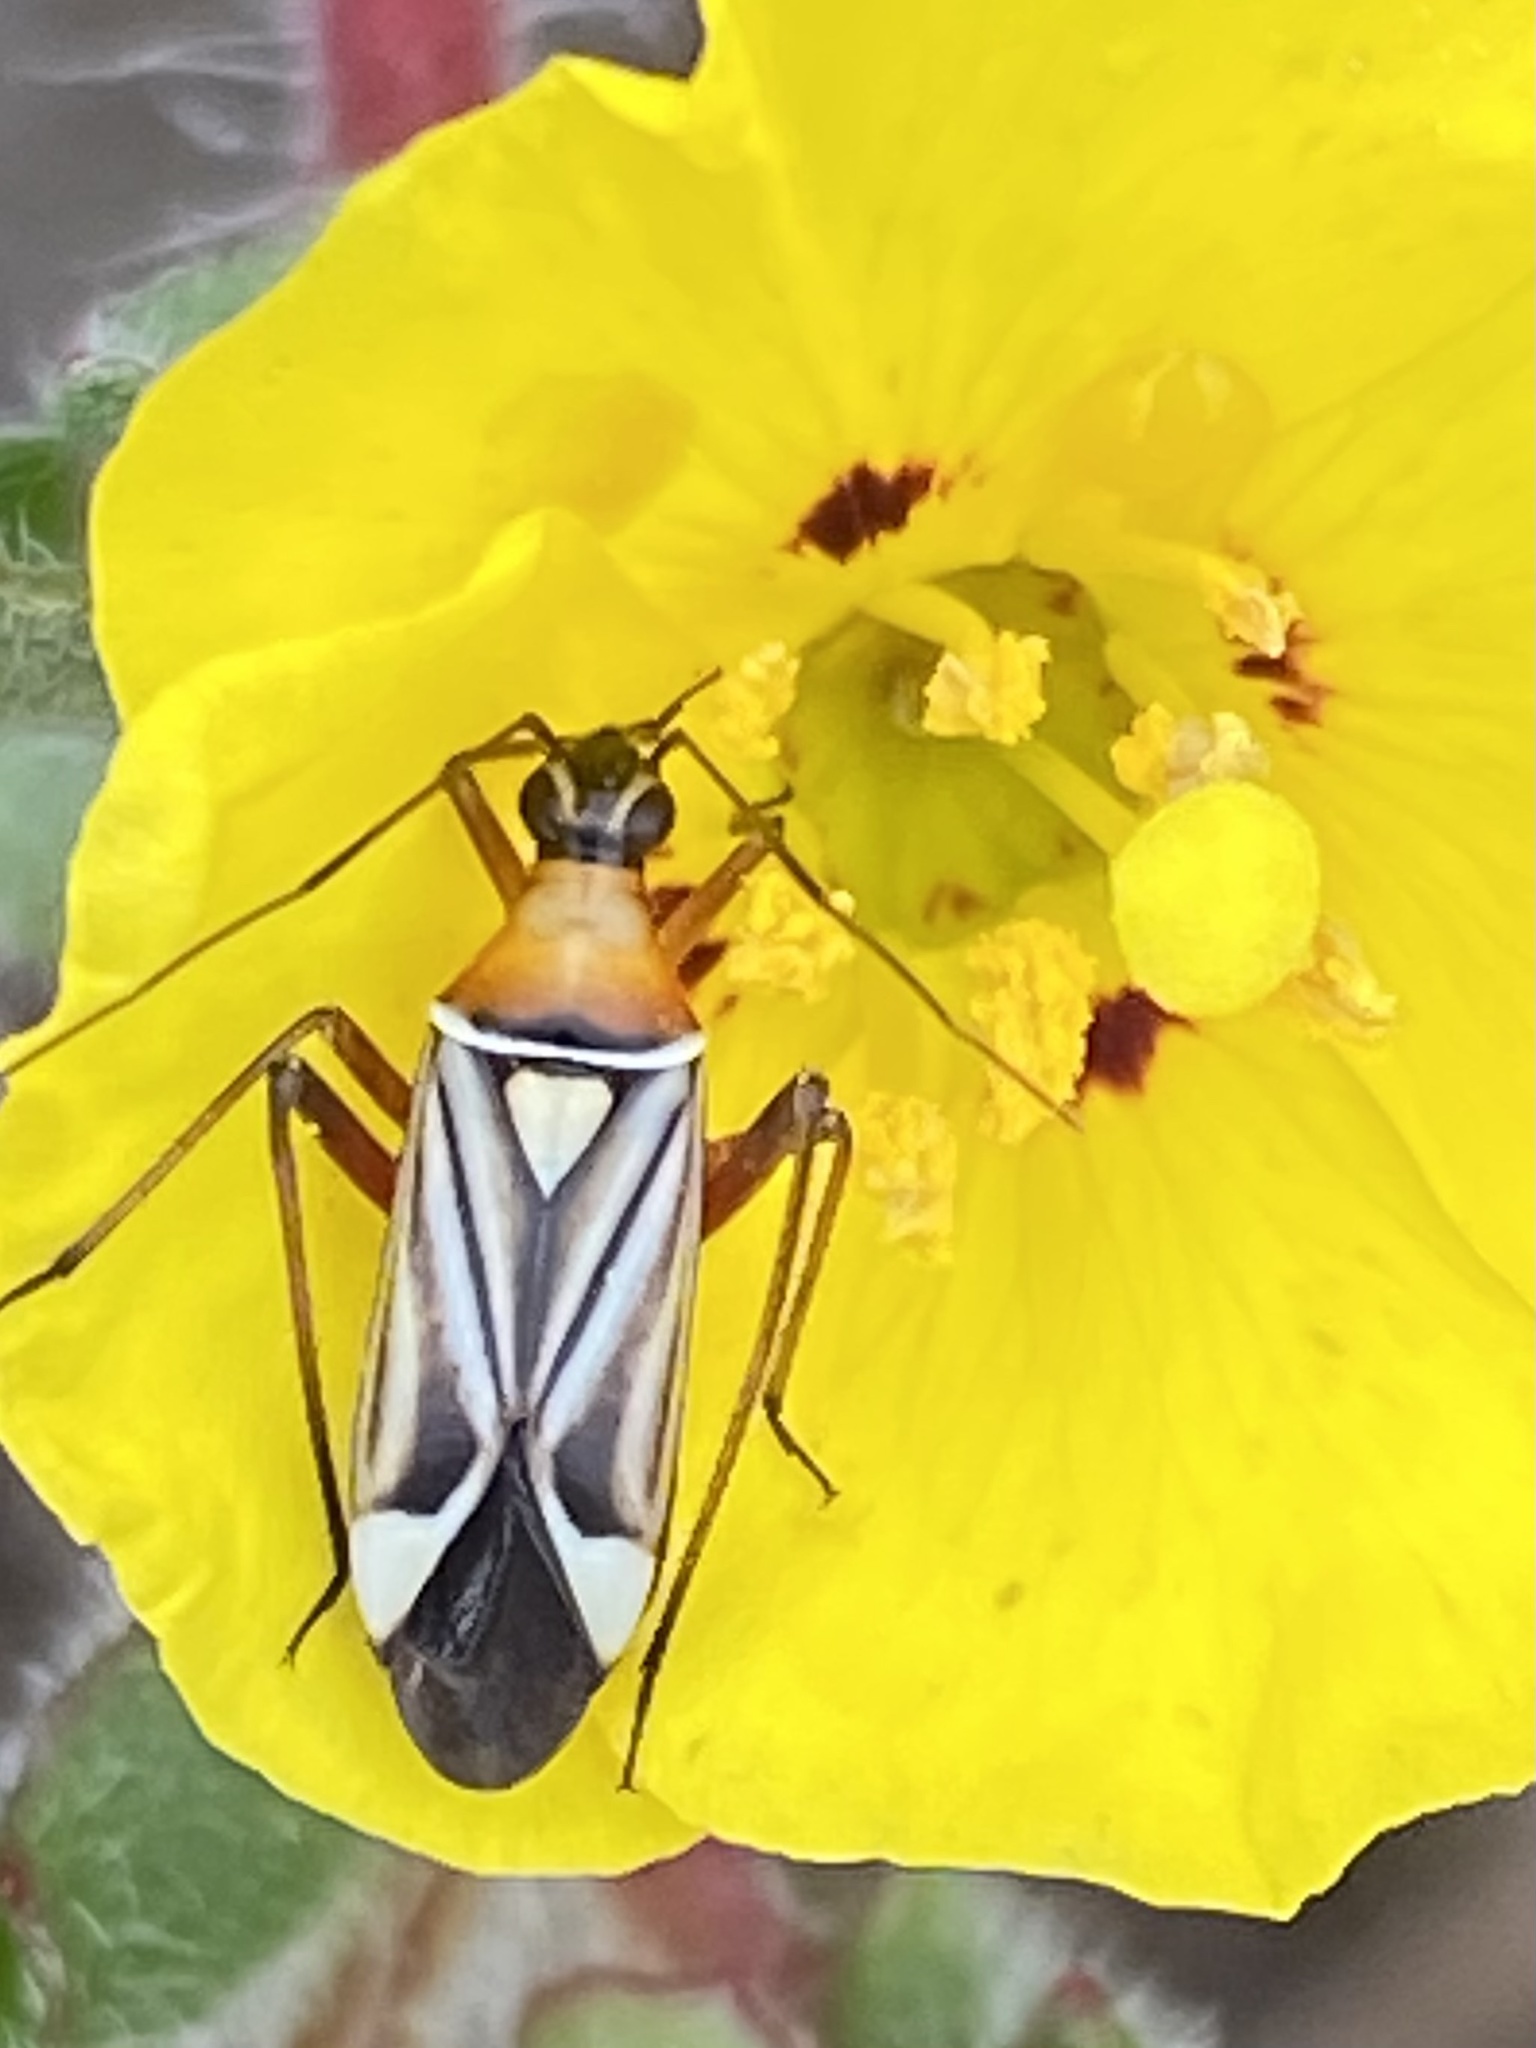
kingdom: Animalia
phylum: Arthropoda
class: Insecta
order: Hemiptera
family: Miridae
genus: Closterocoris
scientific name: Closterocoris amoenus
